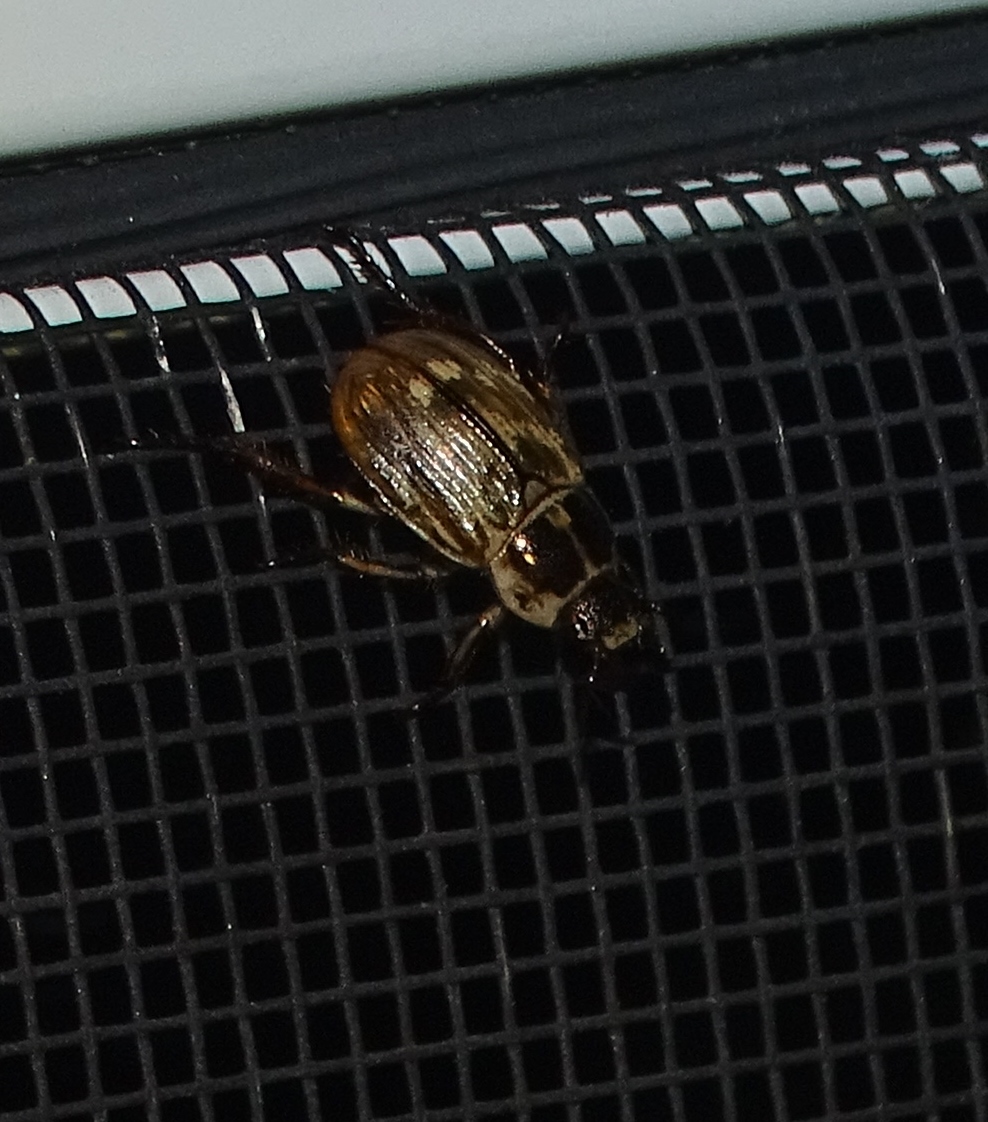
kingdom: Animalia
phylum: Arthropoda
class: Insecta
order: Coleoptera
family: Scarabaeidae
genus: Exomala
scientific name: Exomala orientalis
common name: Oriental beetle
